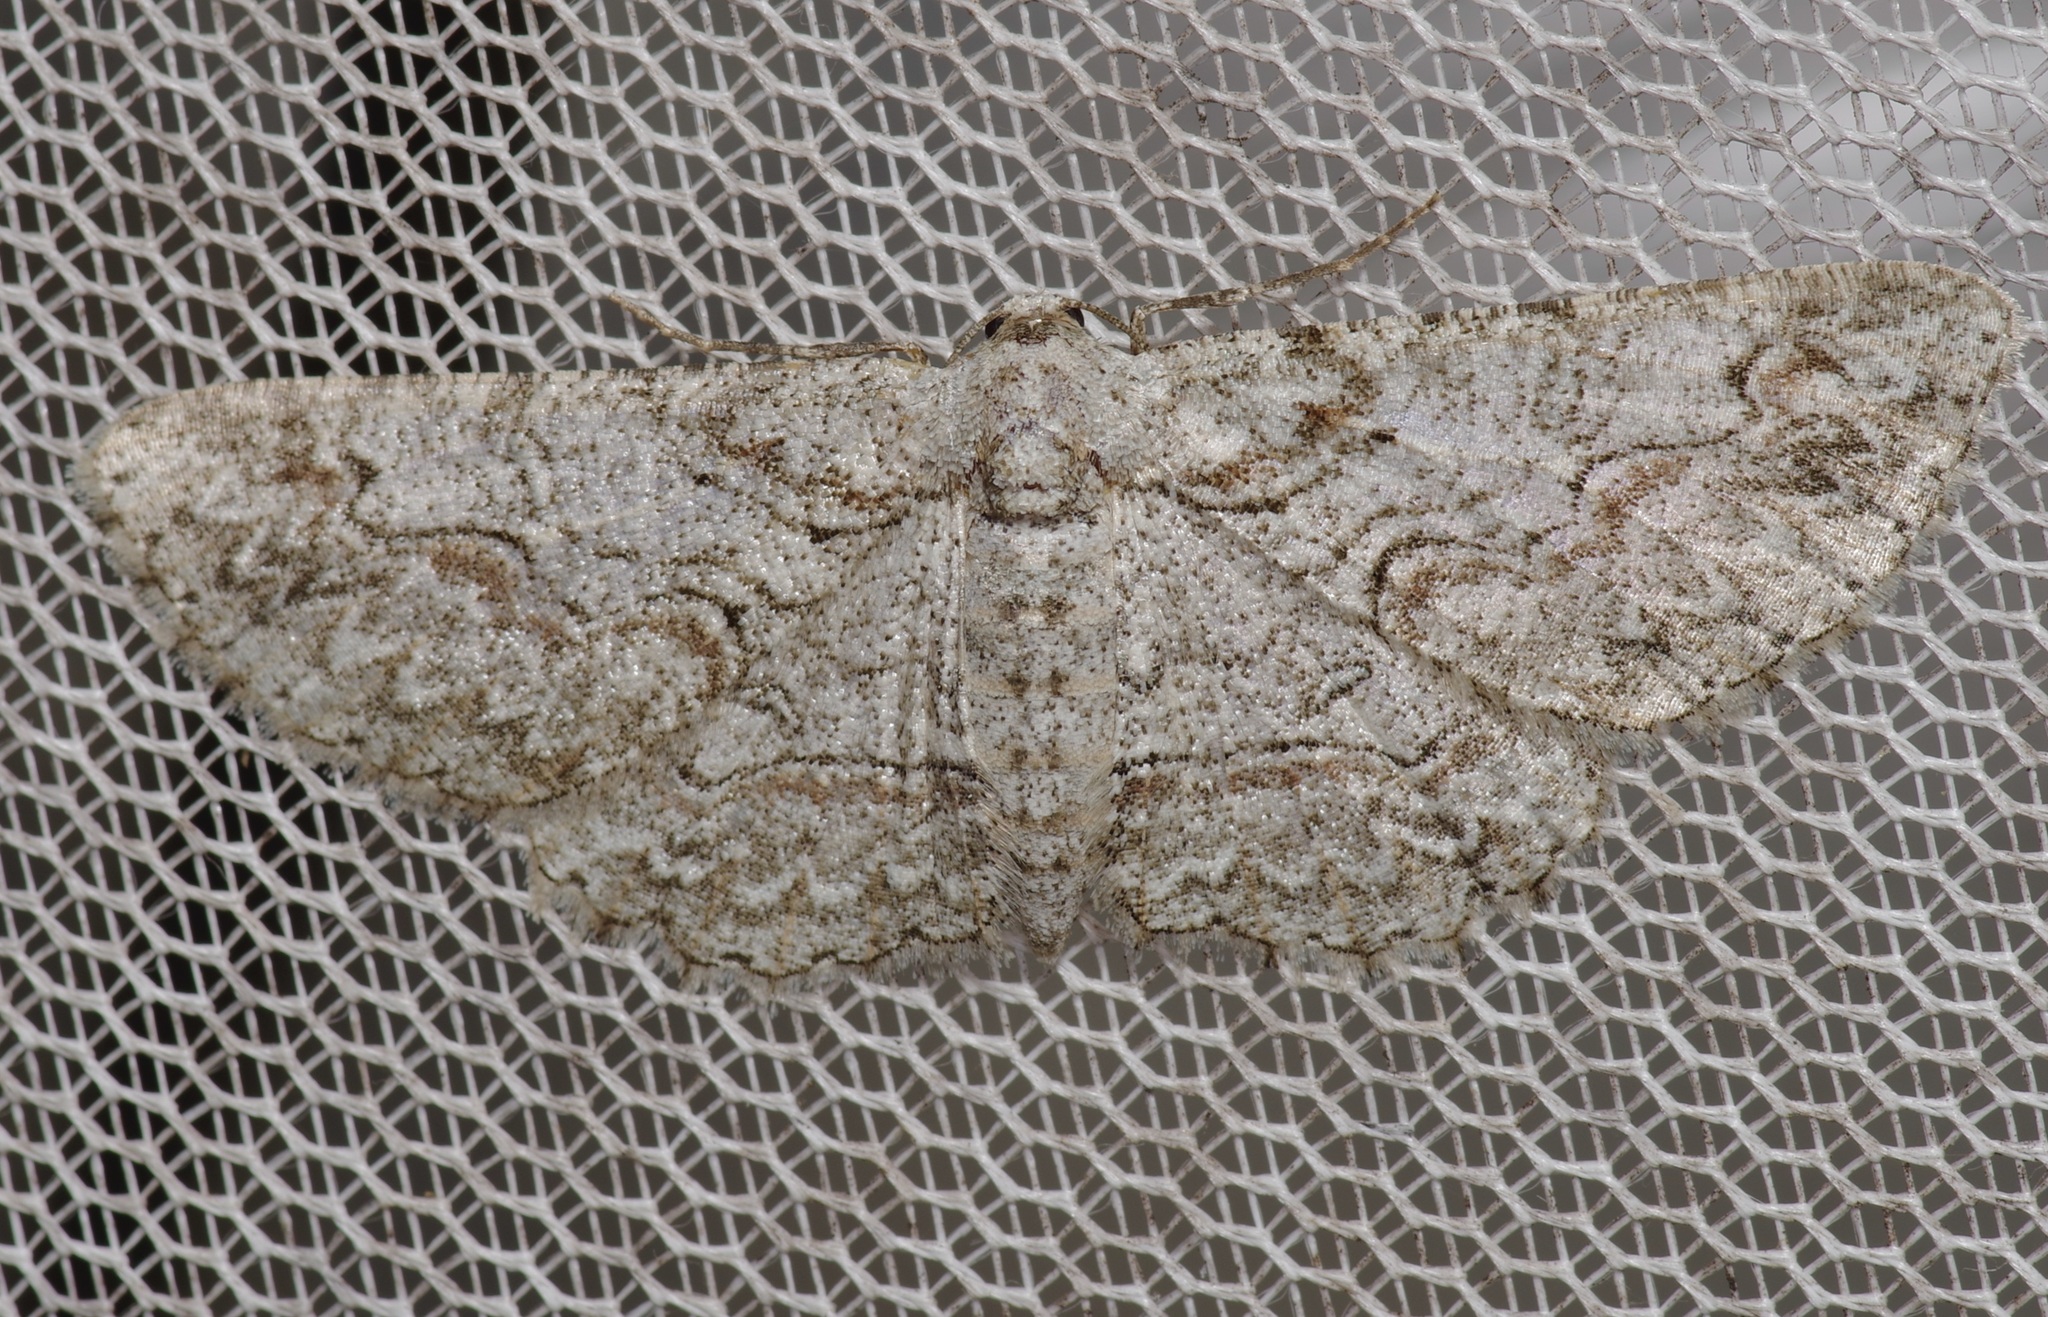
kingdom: Animalia
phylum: Arthropoda
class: Insecta
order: Lepidoptera
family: Geometridae
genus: Iridopsis
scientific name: Iridopsis defectaria
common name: Brown-shaded gray
